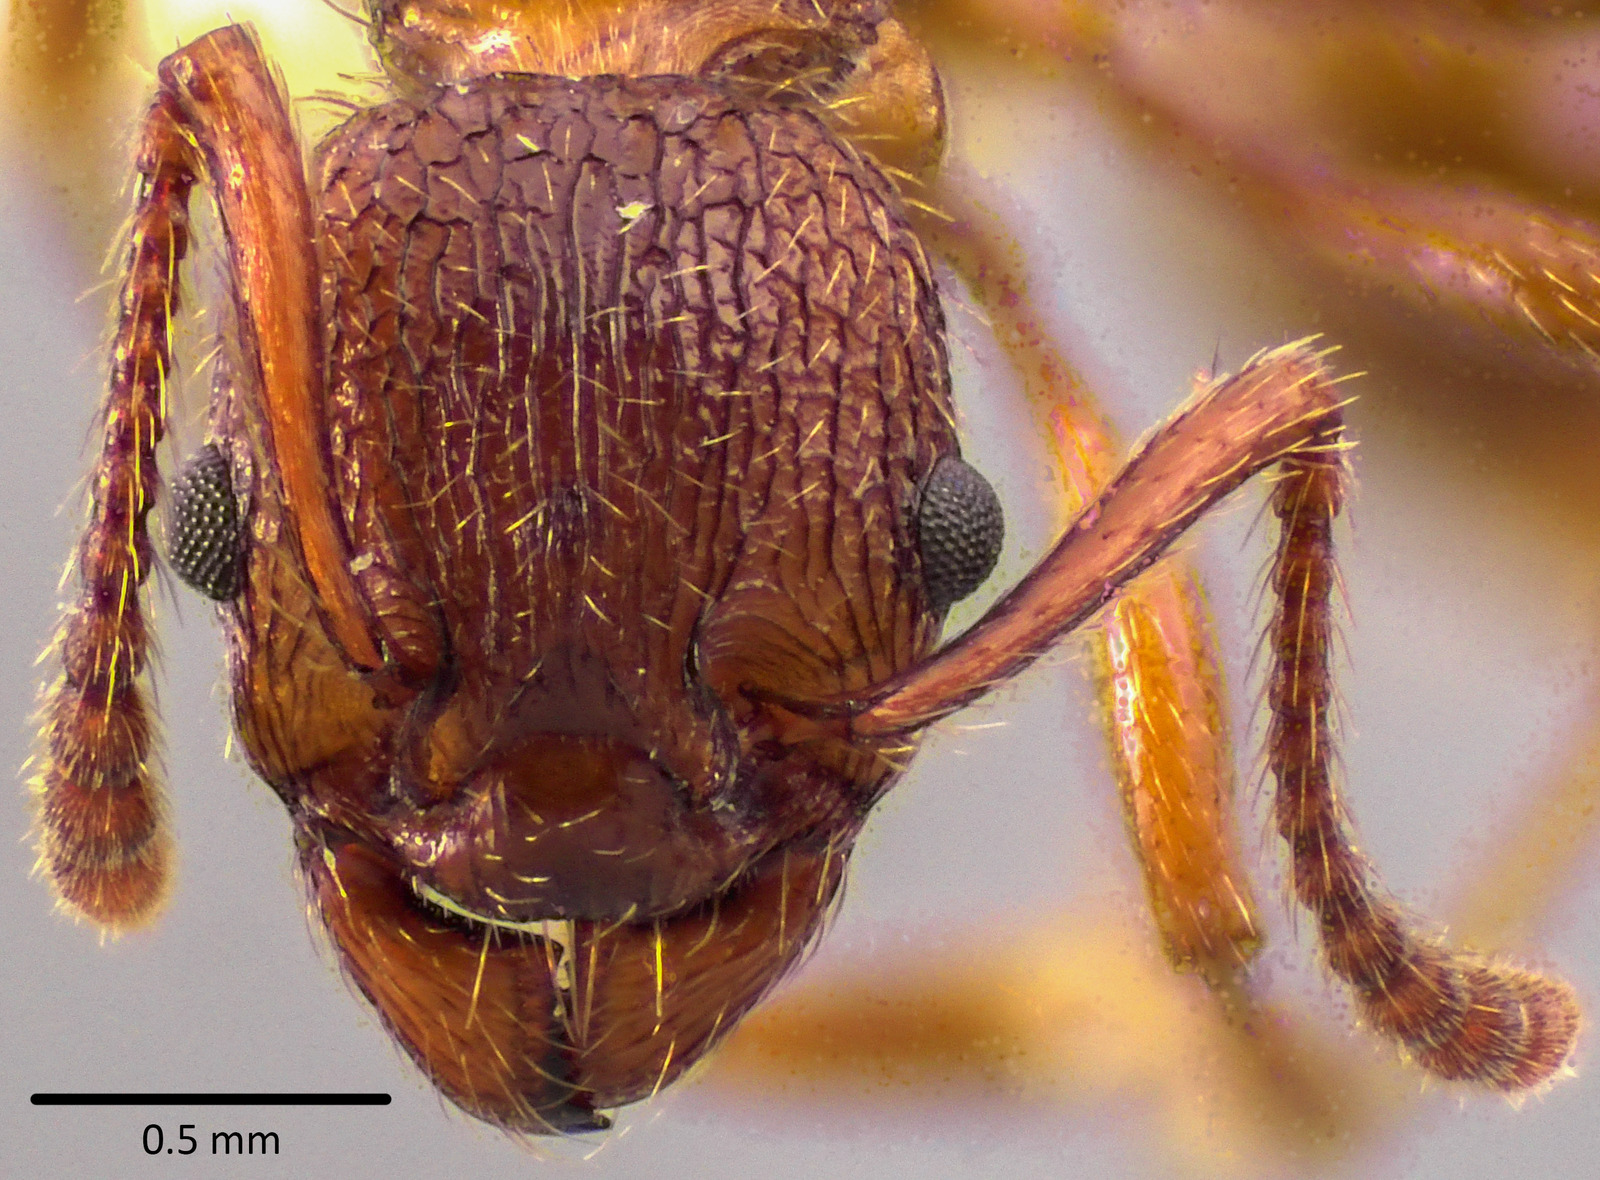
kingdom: Animalia
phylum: Arthropoda
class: Insecta
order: Hymenoptera
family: Formicidae
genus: Myrmica
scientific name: Myrmica americana
